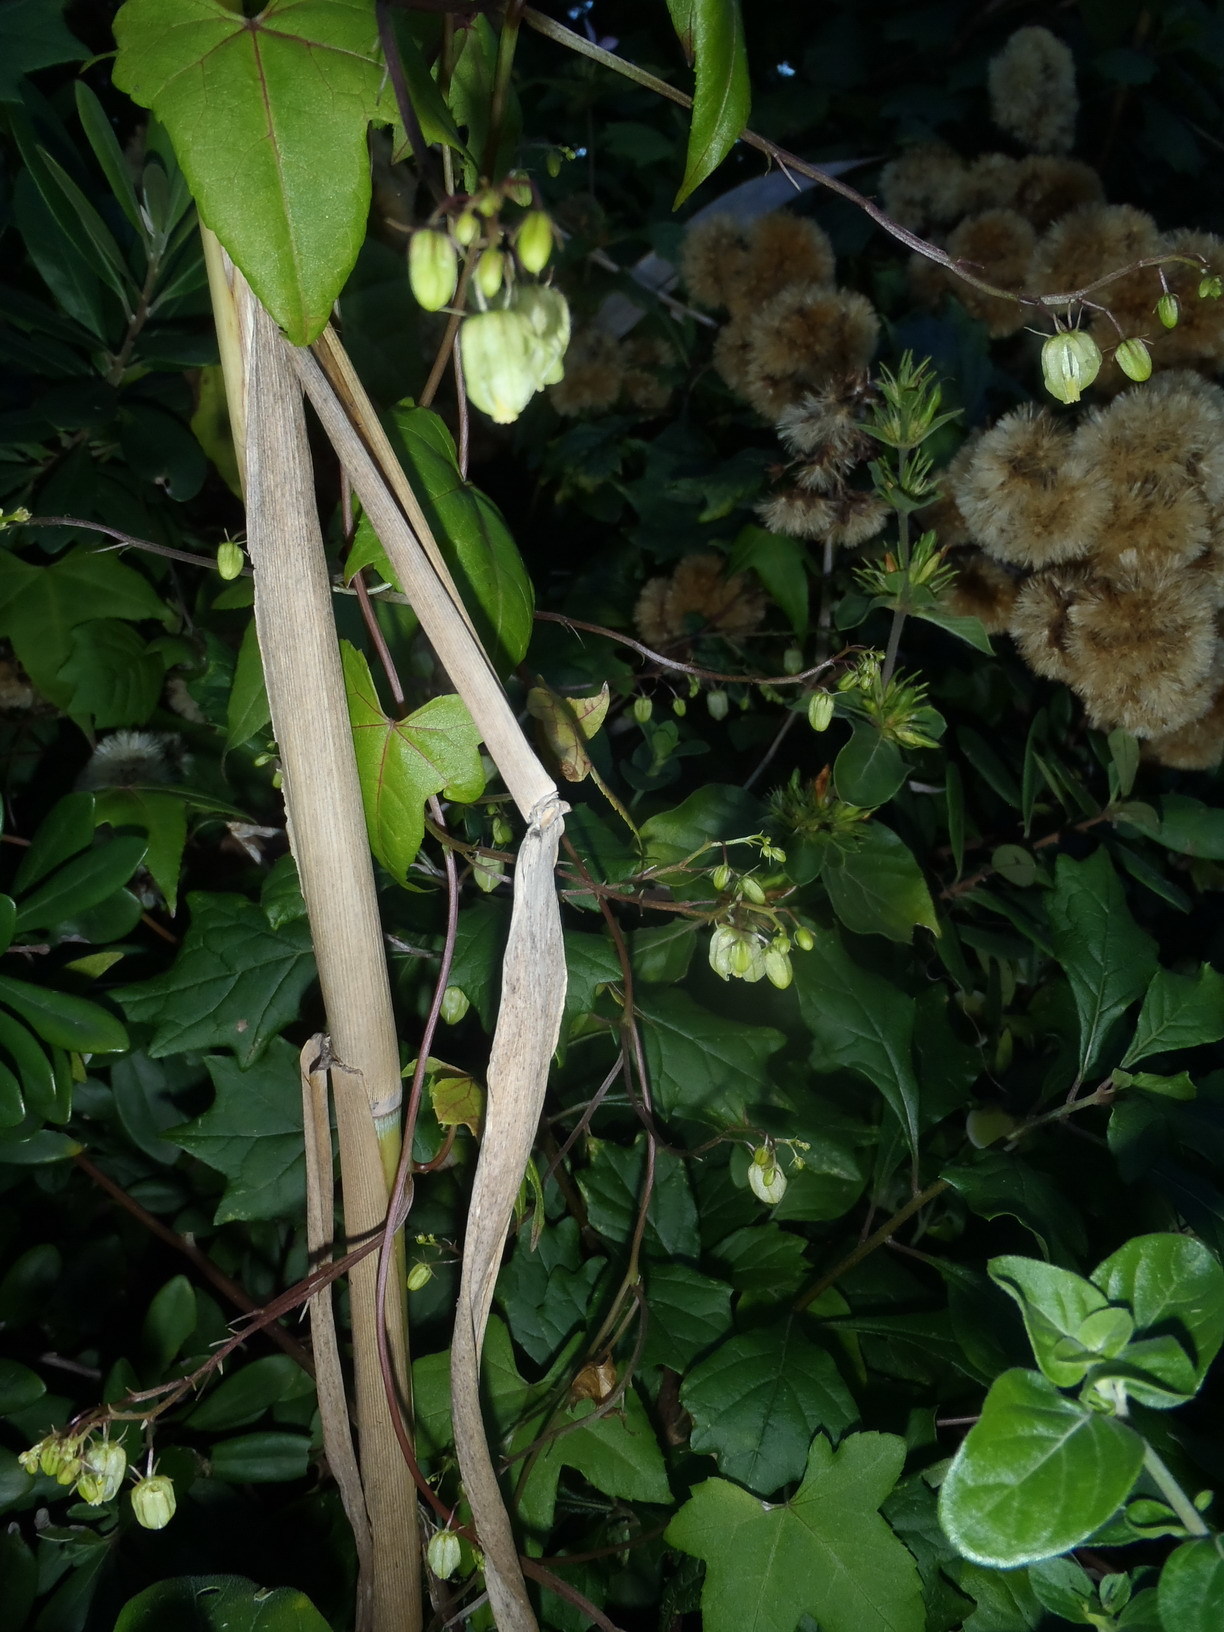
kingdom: Plantae
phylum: Tracheophyta
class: Magnoliopsida
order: Malpighiales
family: Achariaceae
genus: Ceratiosicyos
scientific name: Ceratiosicyos laevis
